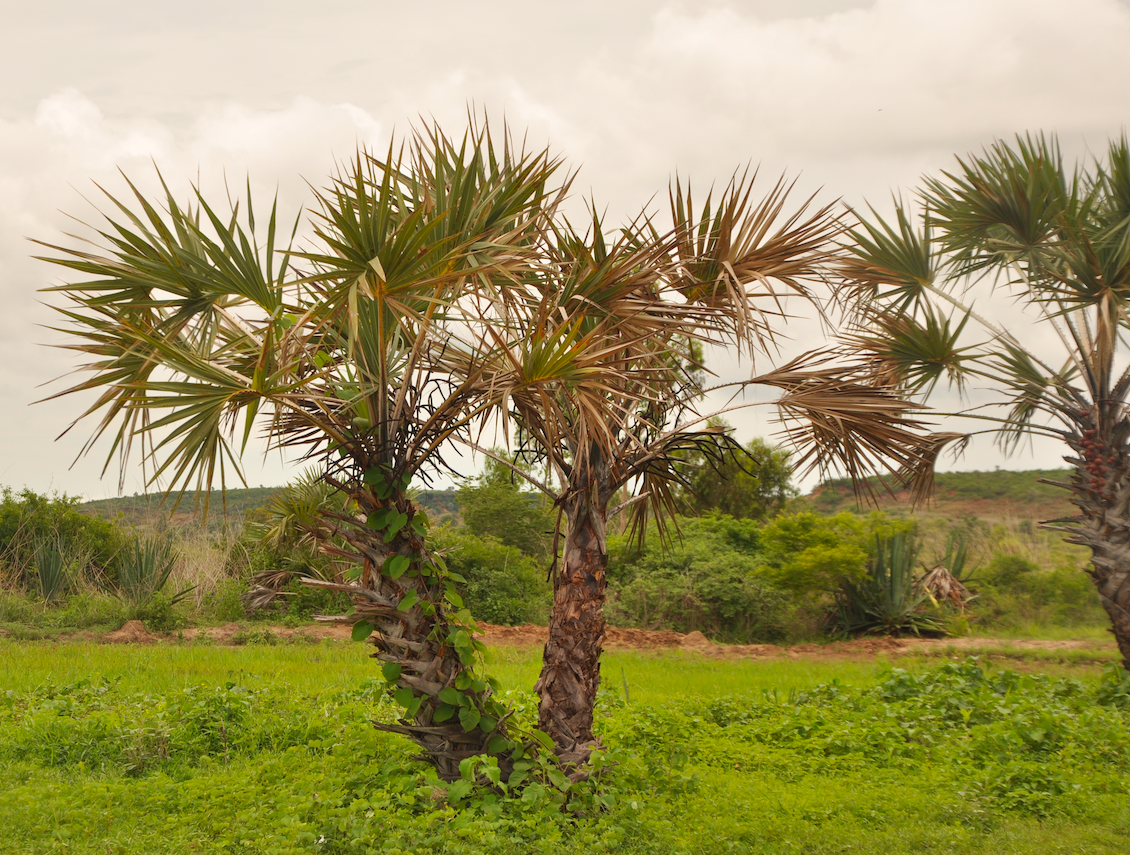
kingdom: Plantae
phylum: Tracheophyta
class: Liliopsida
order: Arecales
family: Arecaceae
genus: Hyphaene
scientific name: Hyphaene coriacea
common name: Ilala palm
